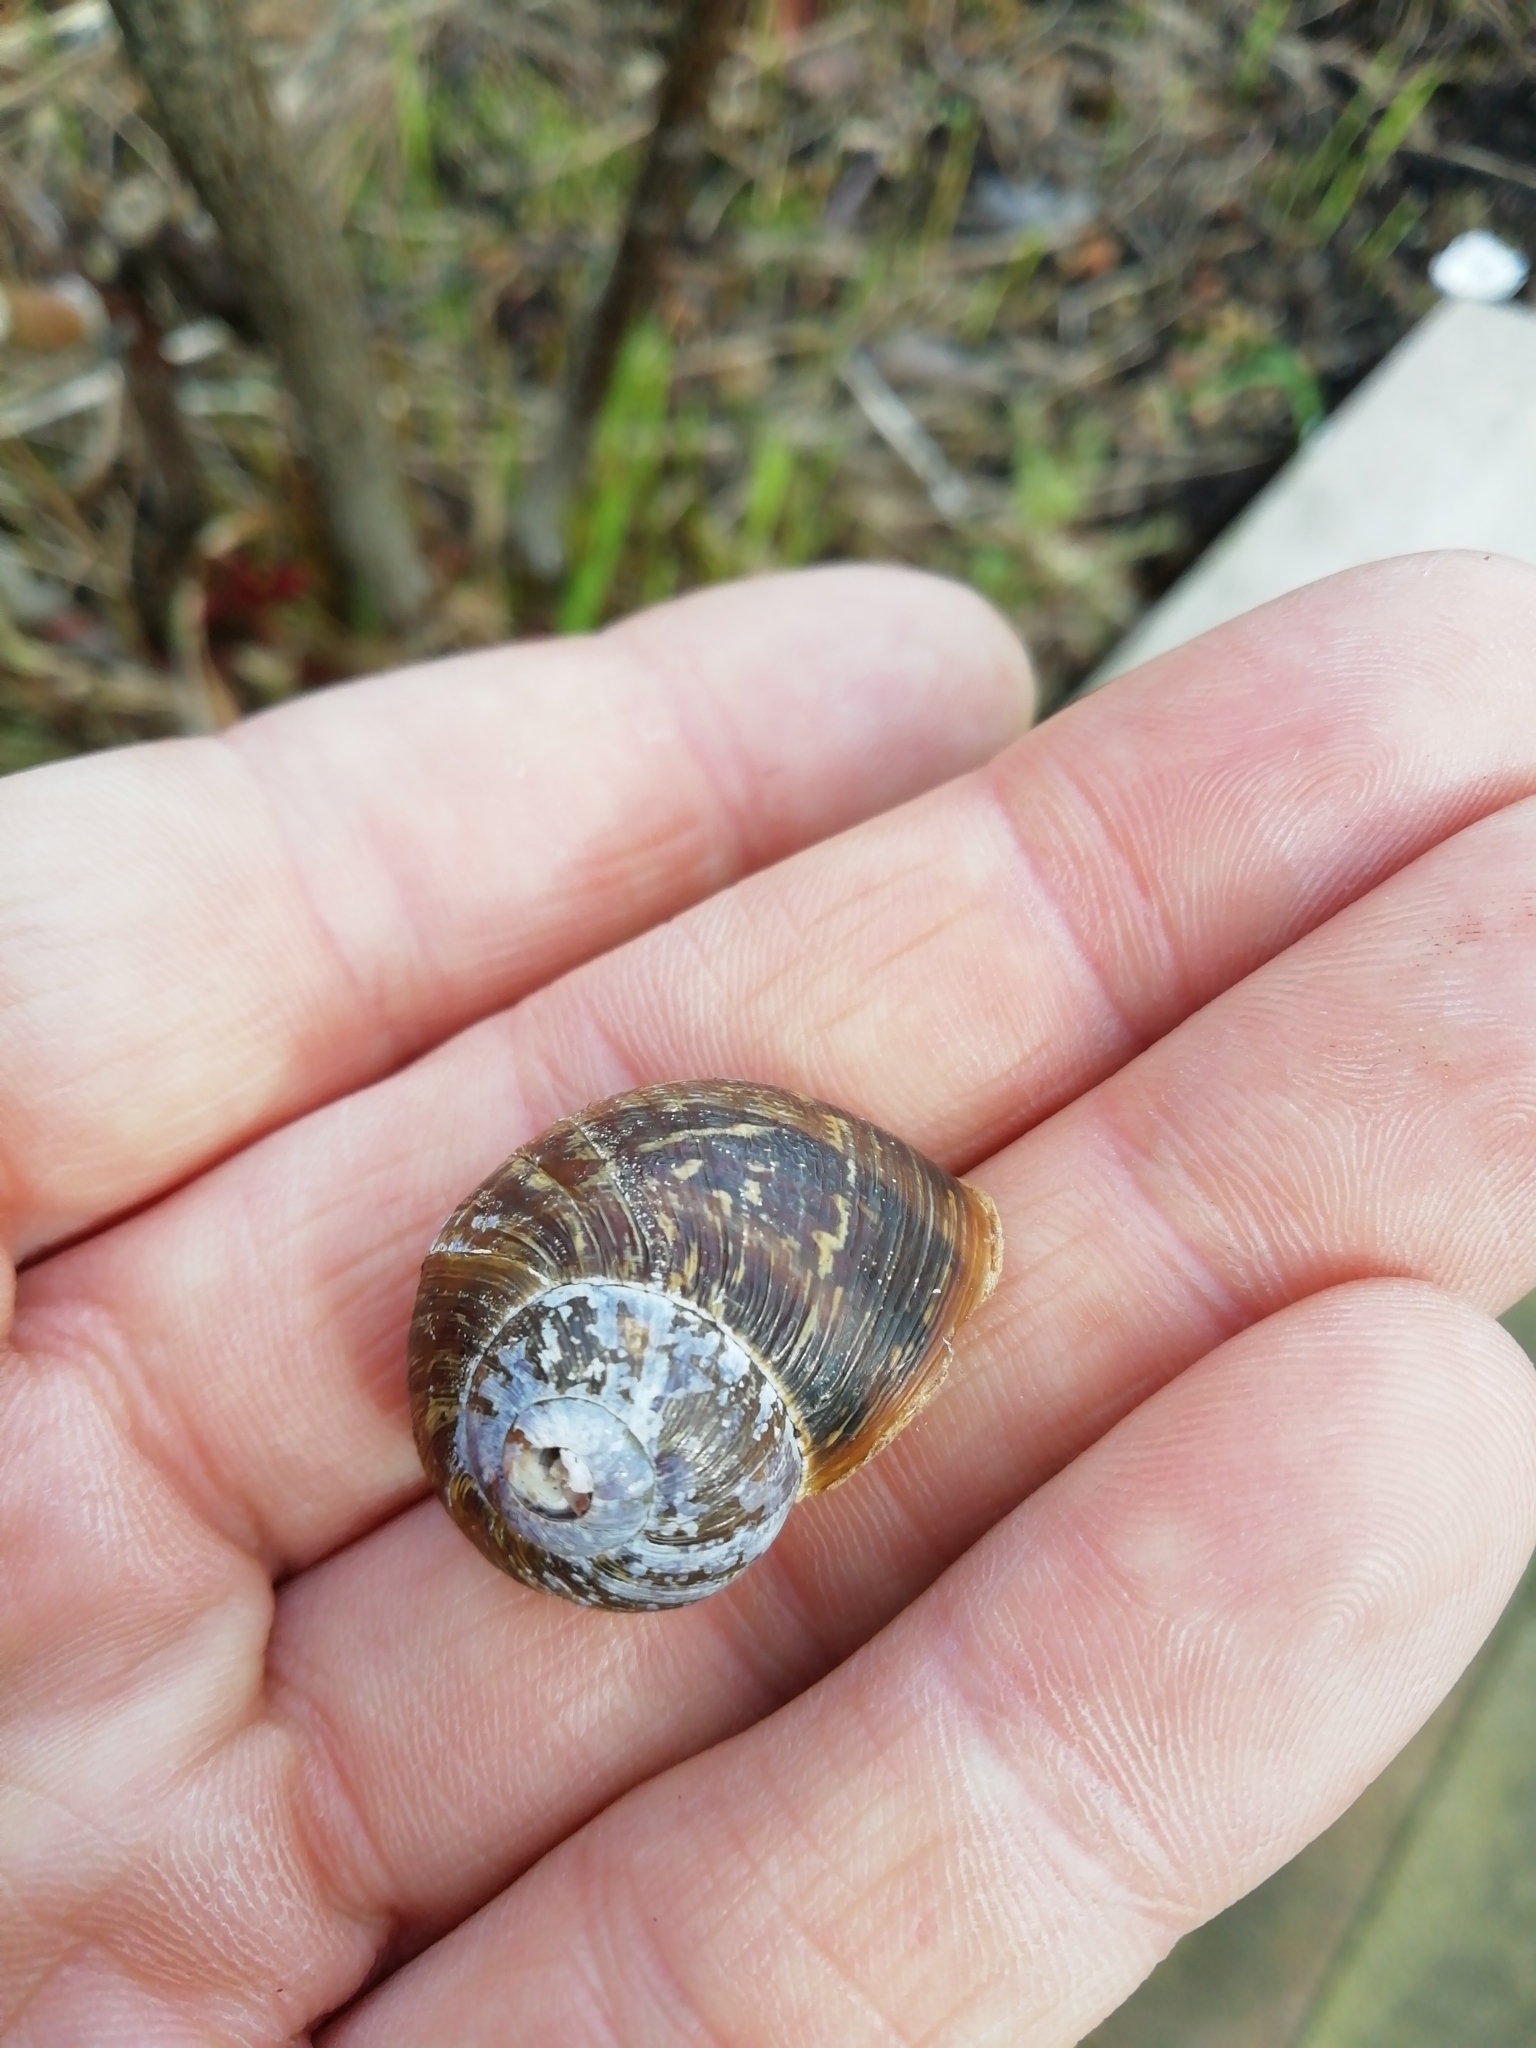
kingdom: Animalia
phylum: Mollusca
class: Gastropoda
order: Stylommatophora
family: Helicidae
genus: Cornu
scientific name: Cornu aspersum
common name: Brown garden snail
